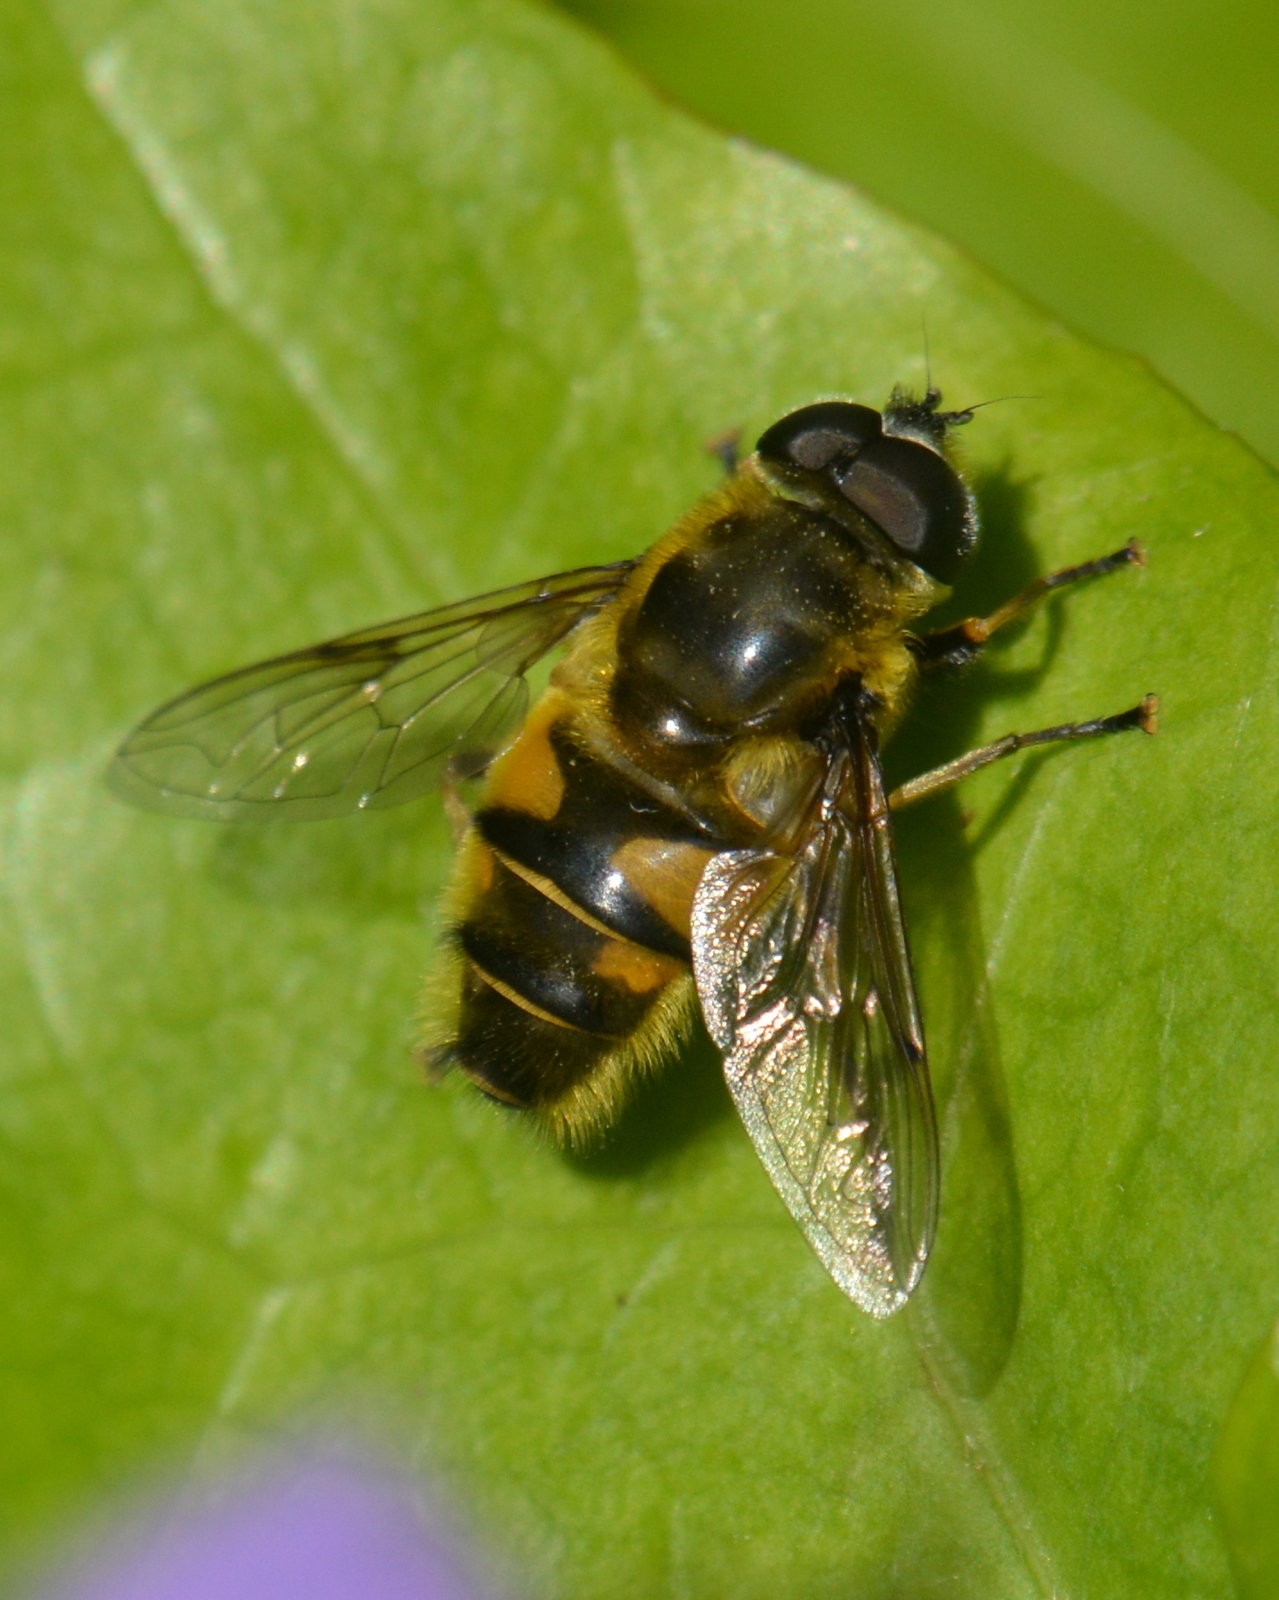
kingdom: Animalia
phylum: Arthropoda
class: Insecta
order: Diptera
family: Syrphidae
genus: Myathropa
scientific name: Myathropa florea
